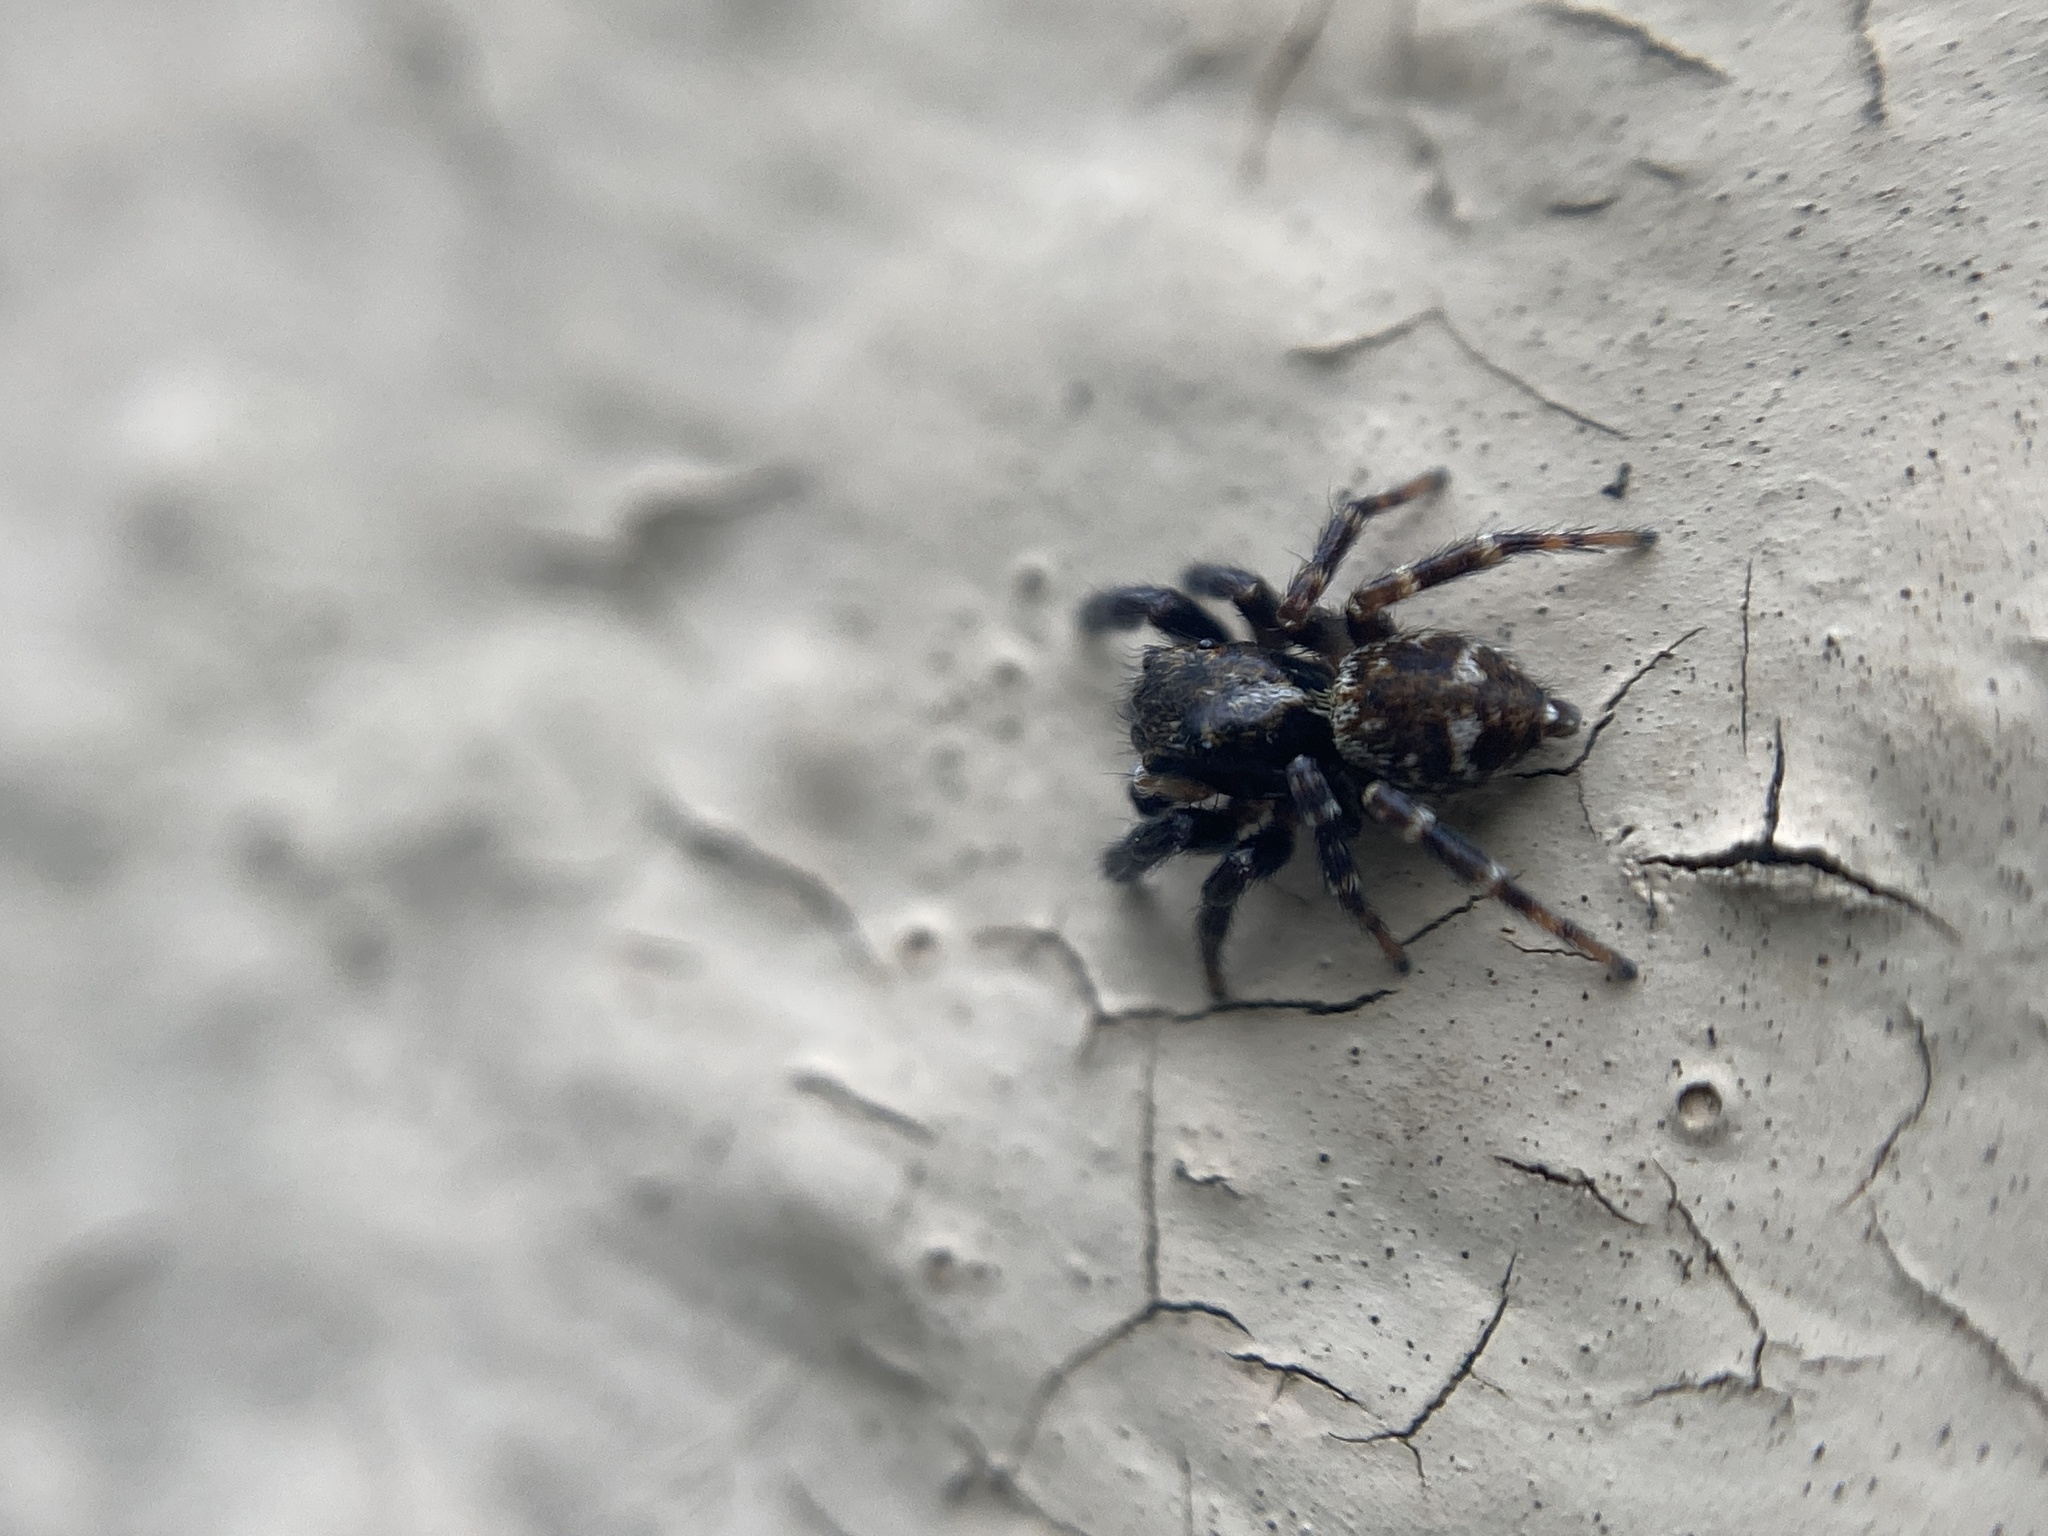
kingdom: Animalia
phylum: Arthropoda
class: Arachnida
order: Araneae
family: Salticidae
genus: Pseudeuophrys
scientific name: Pseudeuophrys erratica
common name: Jumping spider
